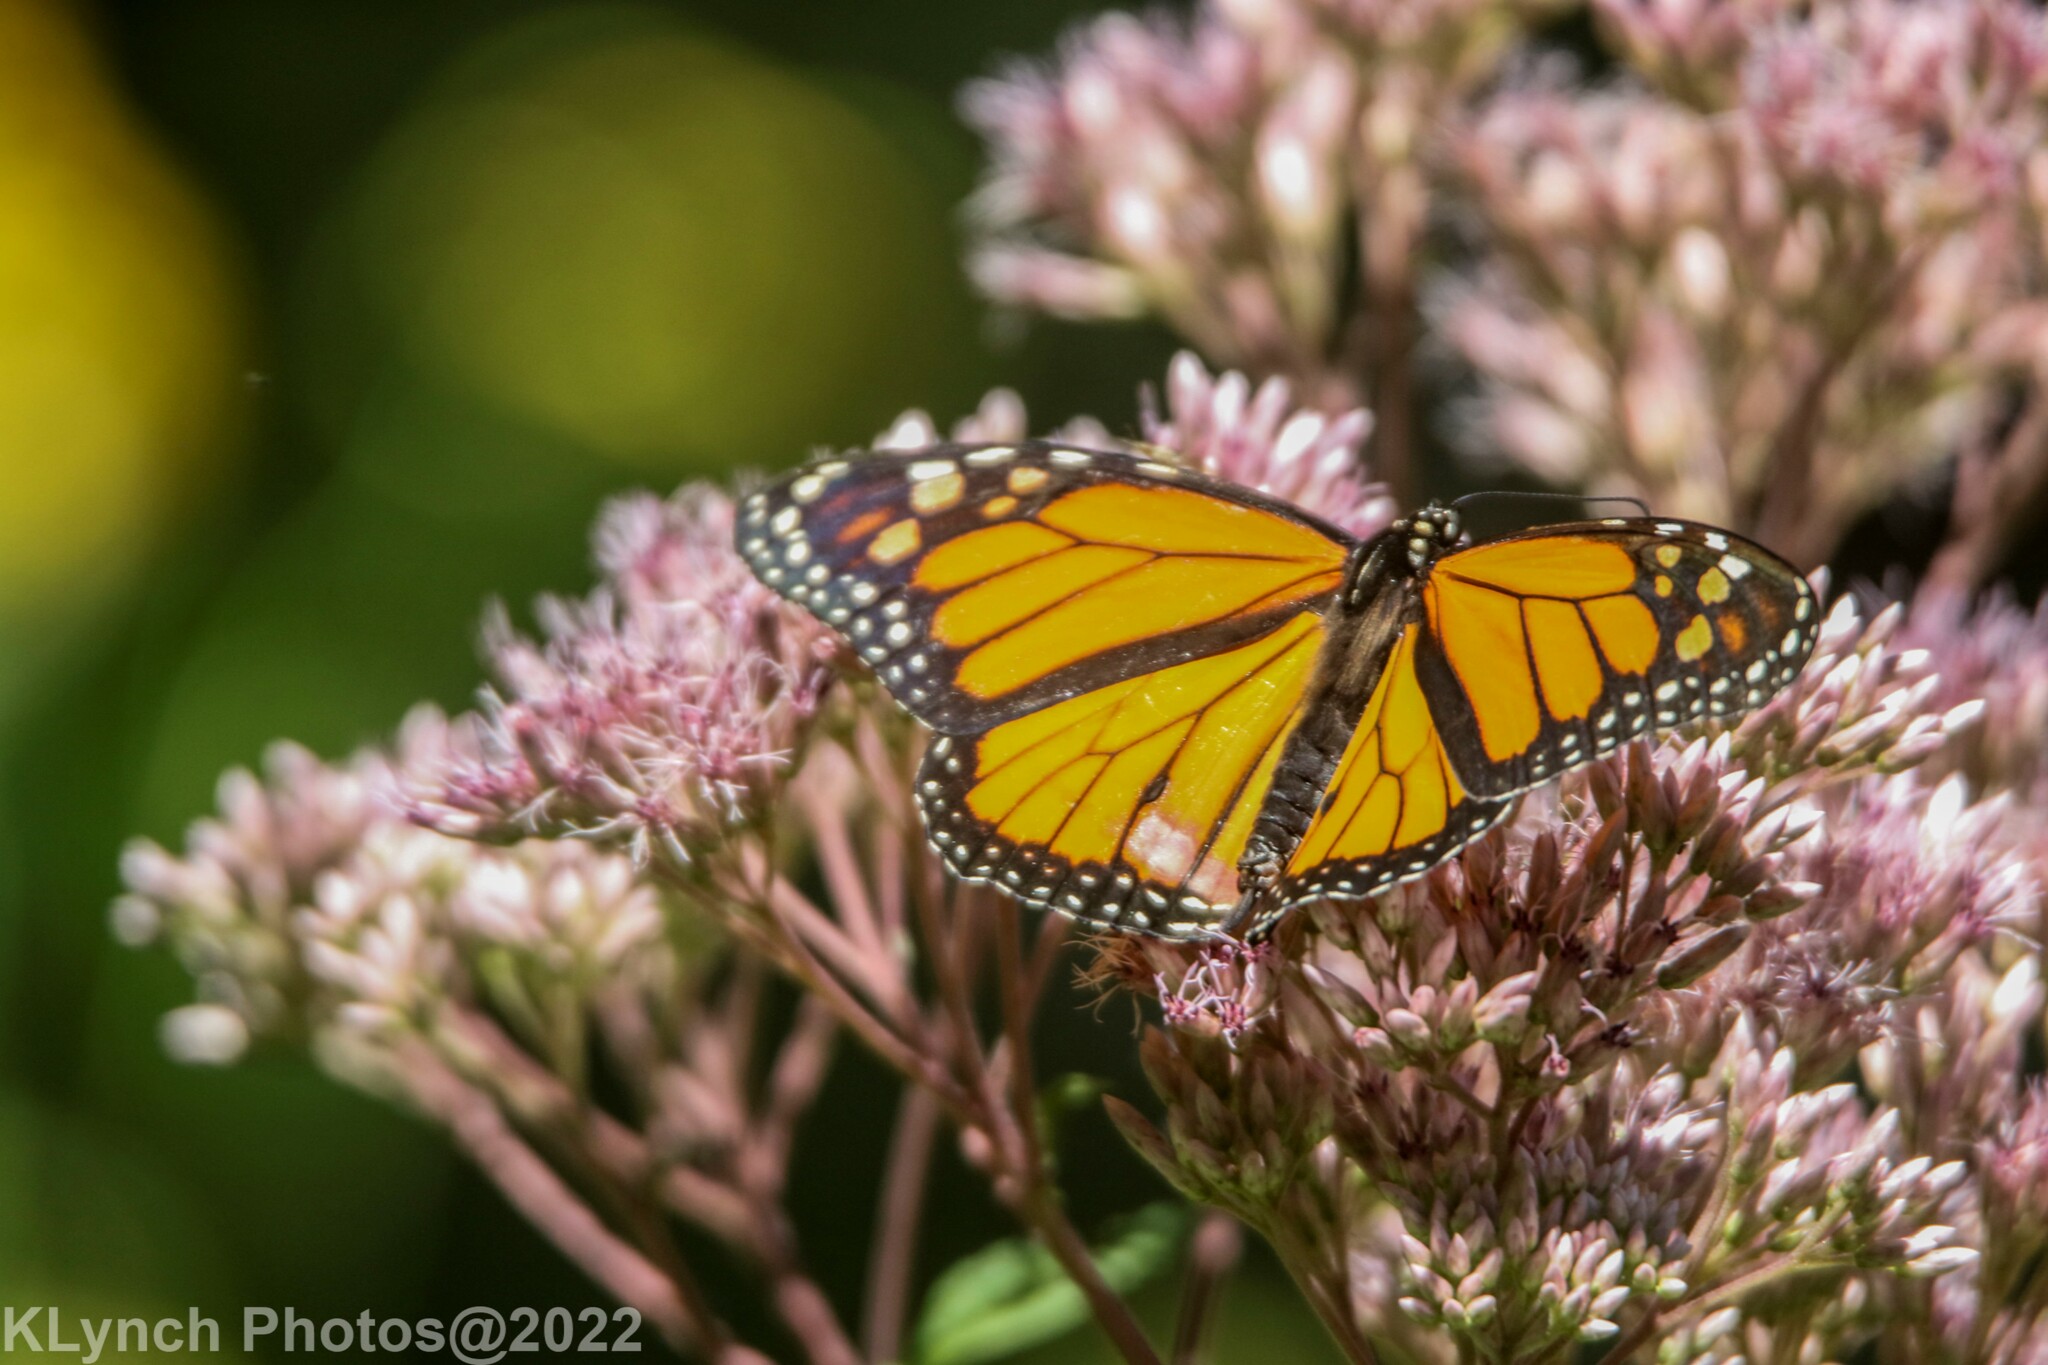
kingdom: Animalia
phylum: Arthropoda
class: Insecta
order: Lepidoptera
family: Nymphalidae
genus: Danaus
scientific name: Danaus plexippus
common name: Monarch
